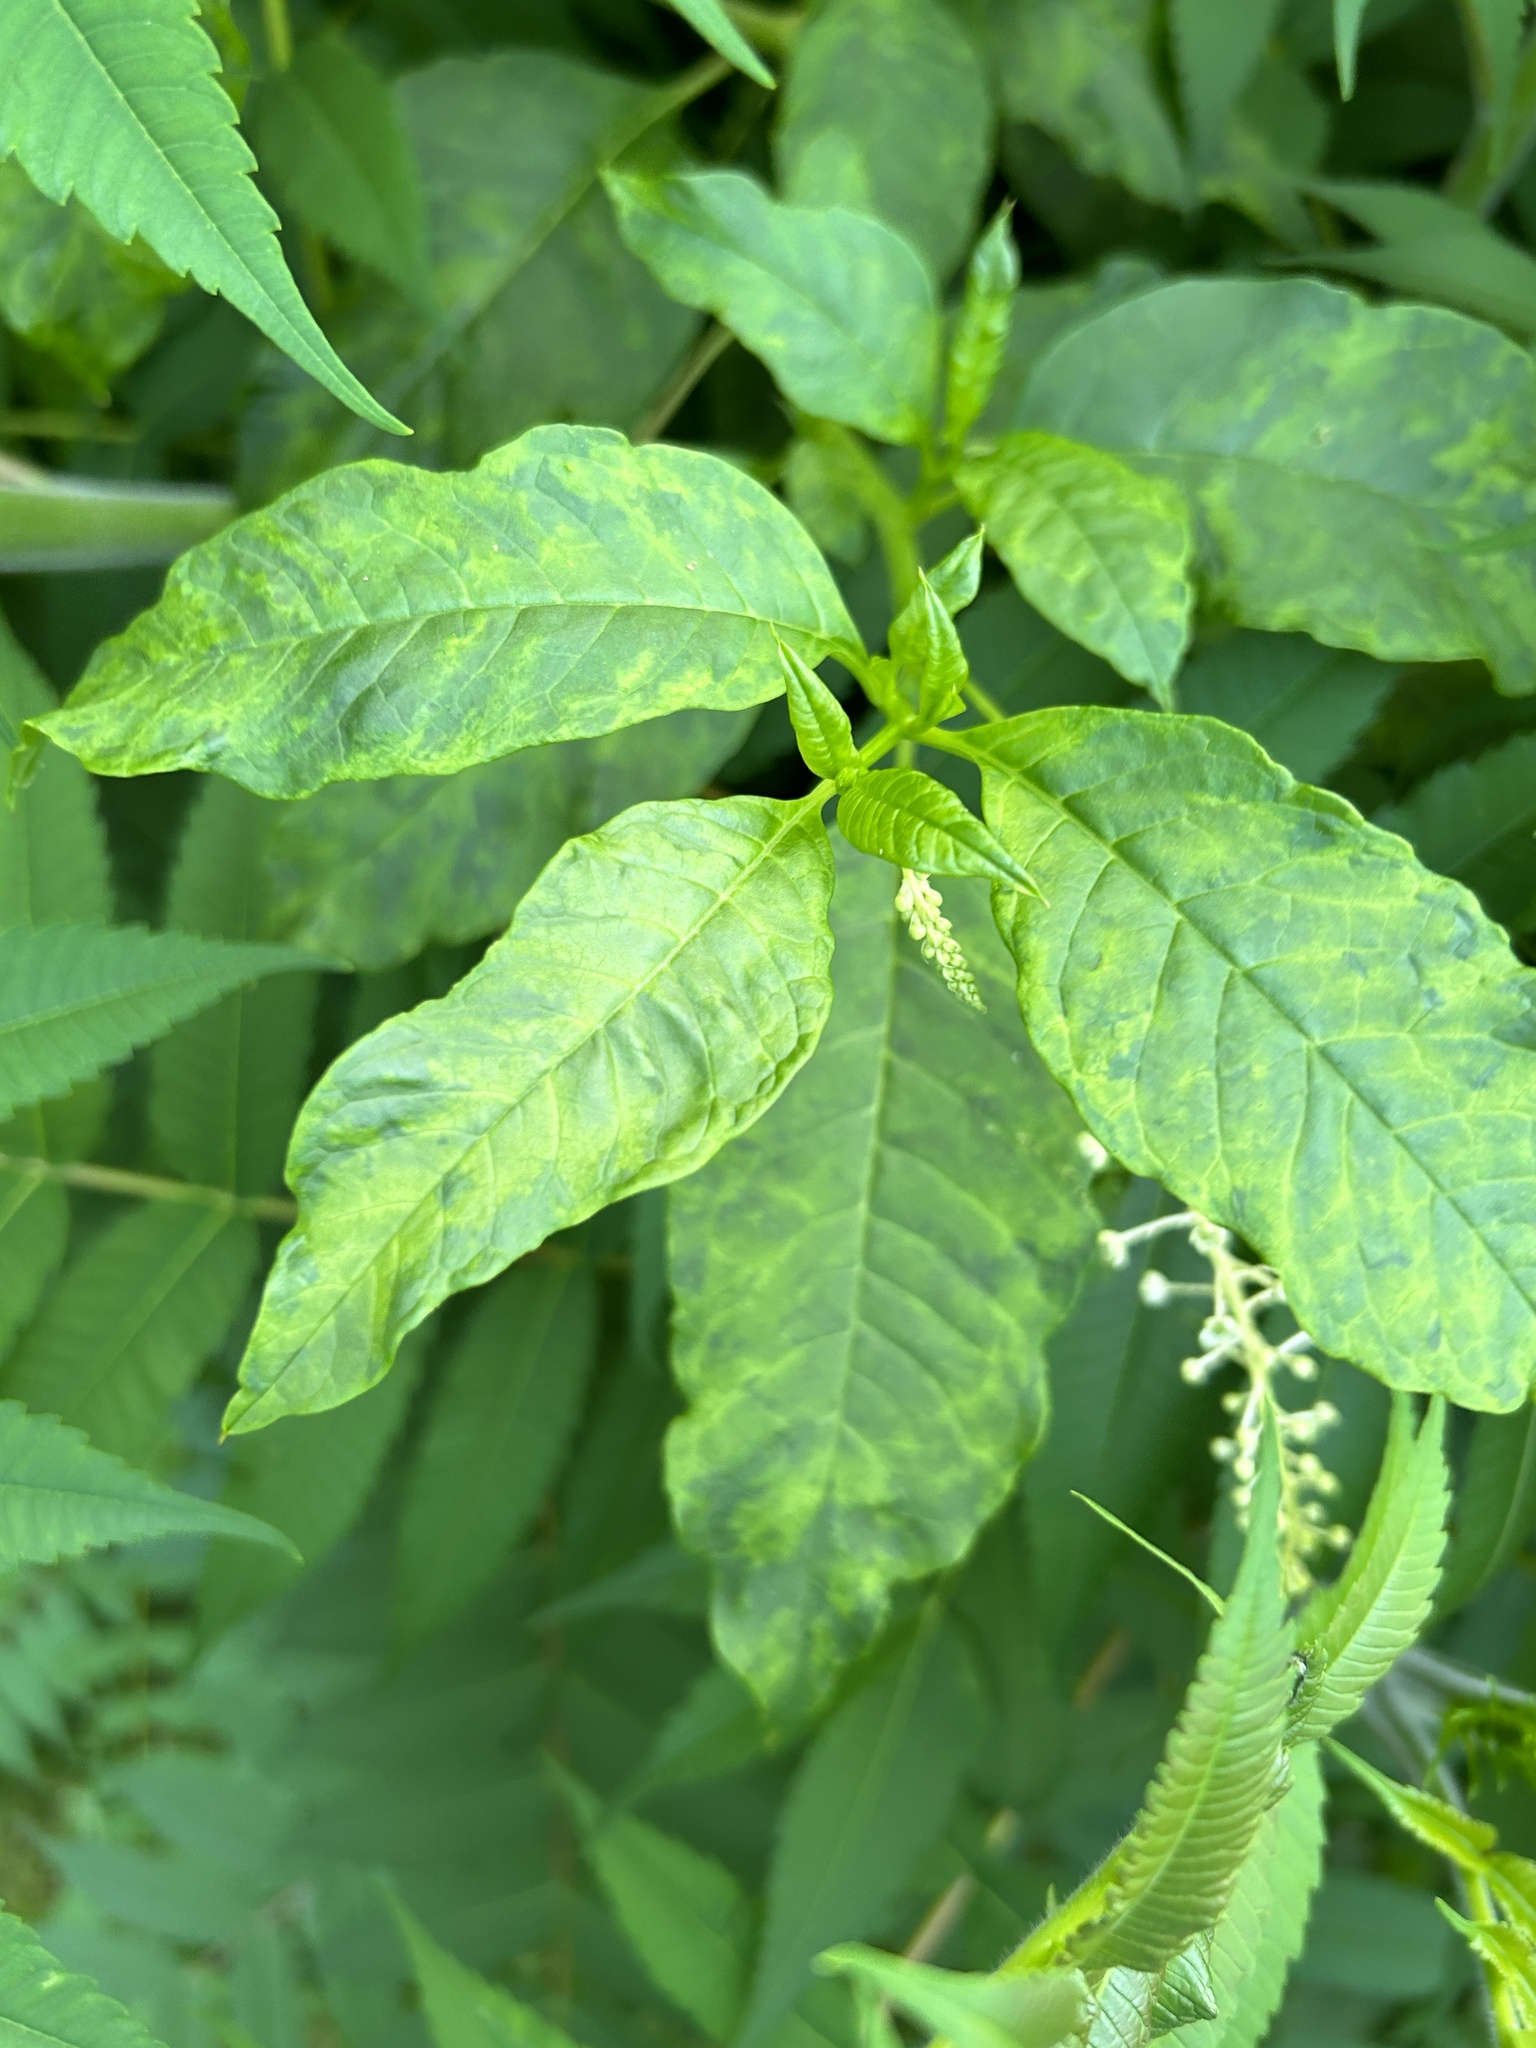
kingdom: Viruses
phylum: Pisuviricota
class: Stelpaviricetes
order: Patatavirales
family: Potyviridae
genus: Potyvirus
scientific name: Potyvirus Pokeweed mosaic virus
